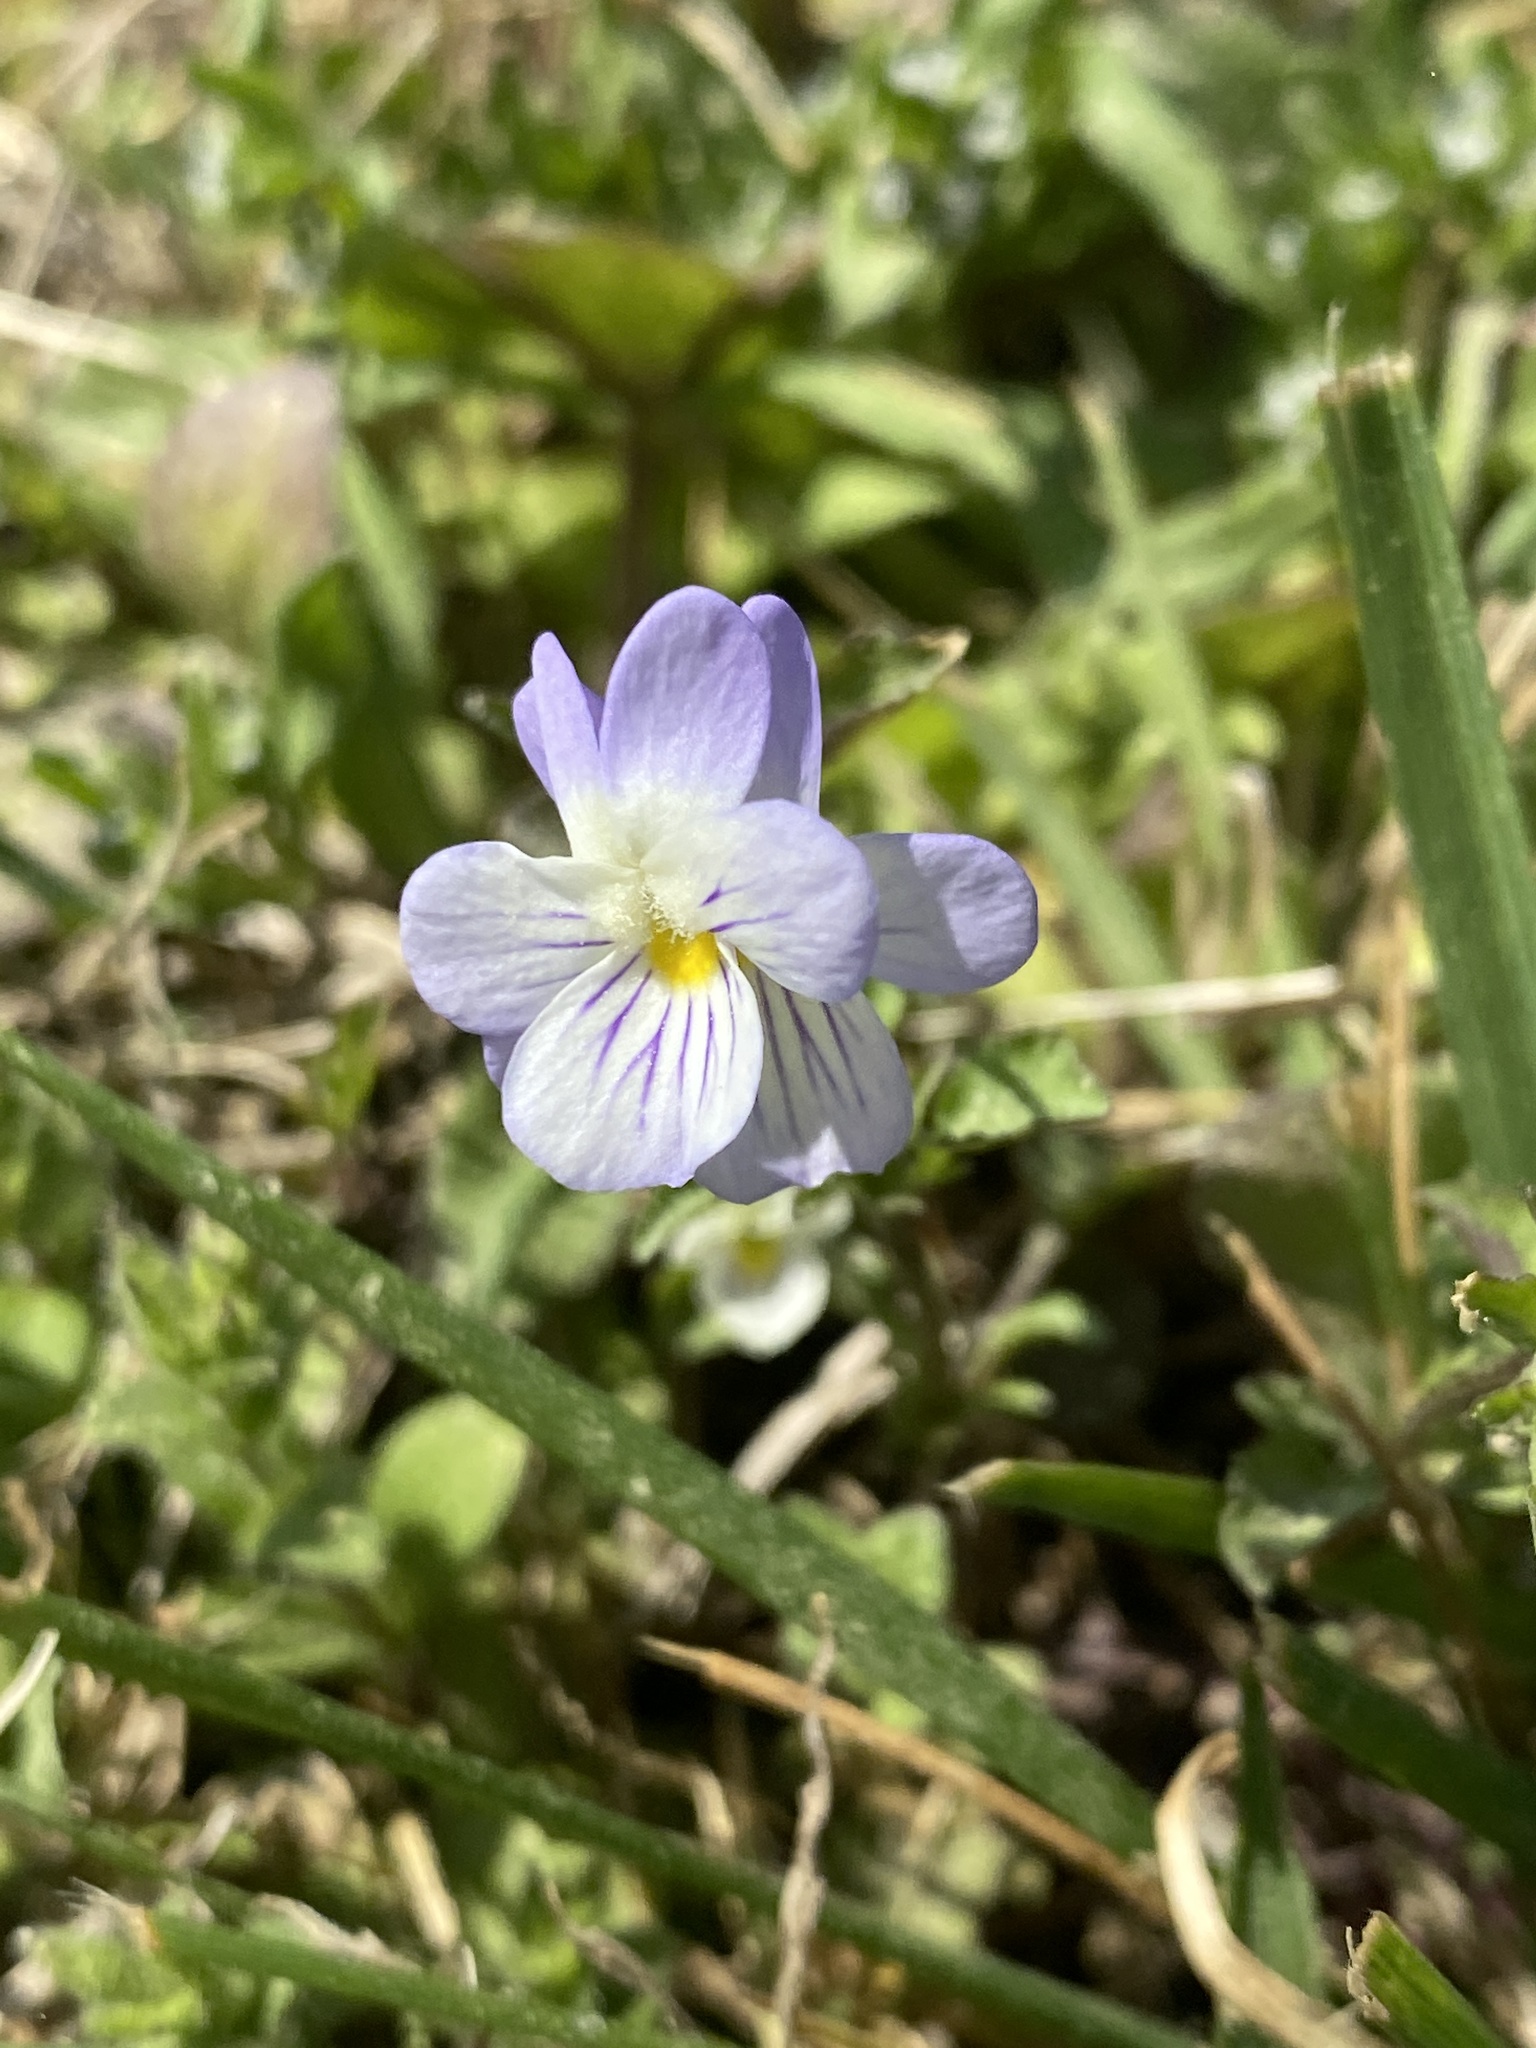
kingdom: Plantae
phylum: Tracheophyta
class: Magnoliopsida
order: Malpighiales
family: Violaceae
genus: Viola
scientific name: Viola rafinesquei
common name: American field pansy
